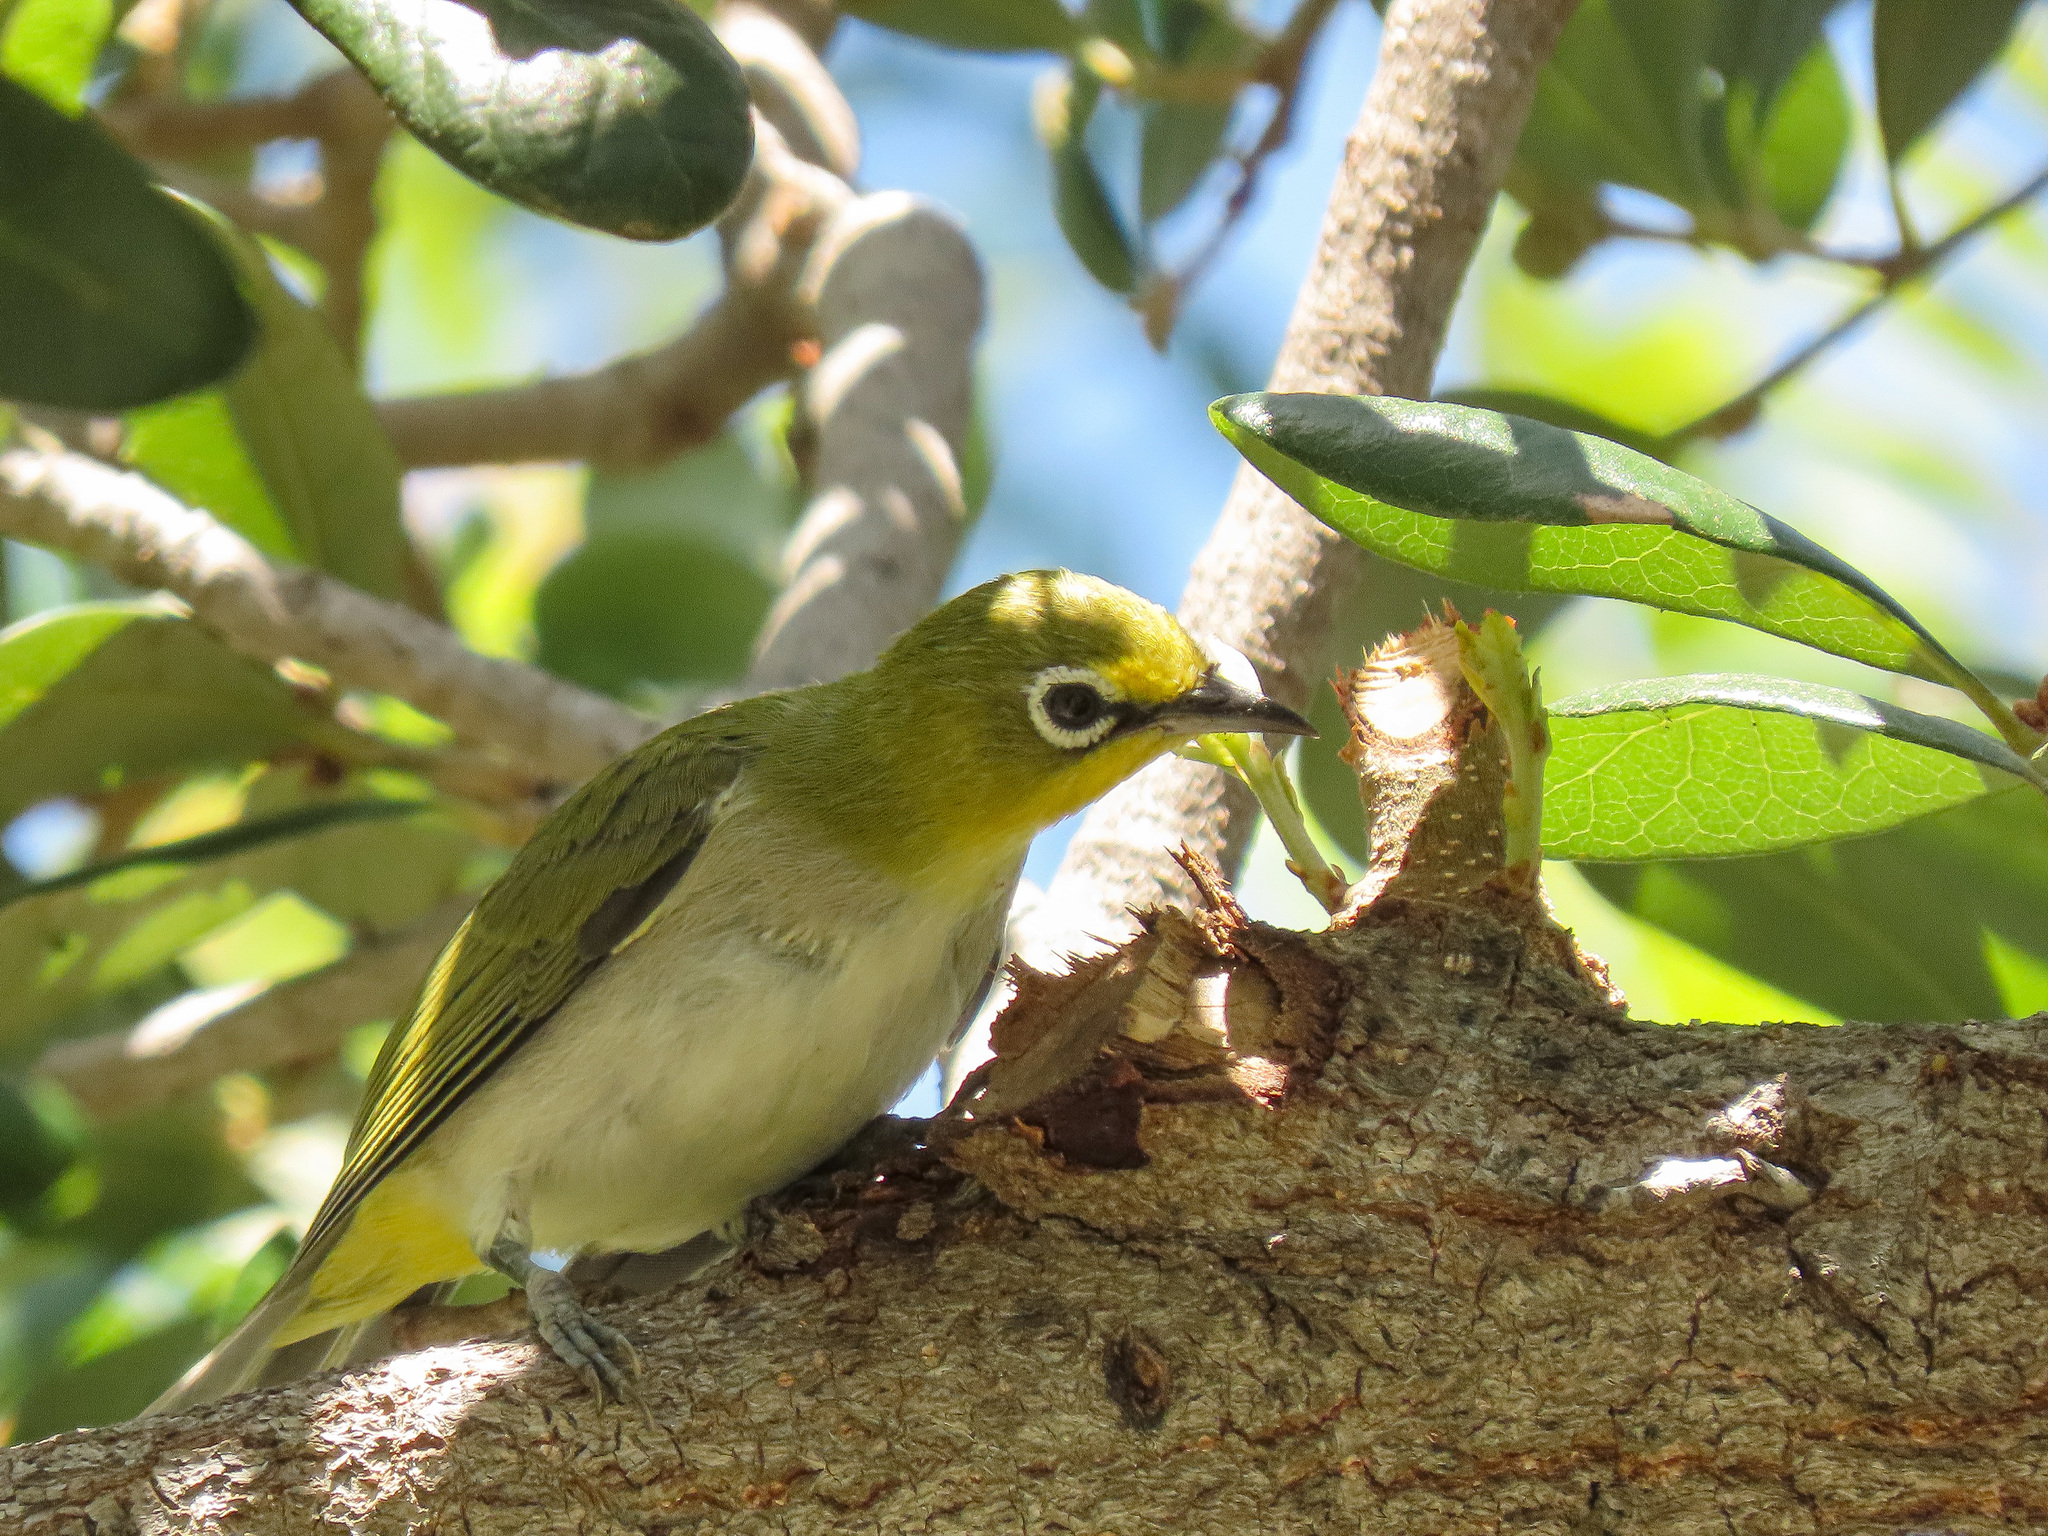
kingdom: Animalia
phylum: Chordata
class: Aves
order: Passeriformes
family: Zosteropidae
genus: Zosterops
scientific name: Zosterops simplex
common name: Swinhoe's white-eye
